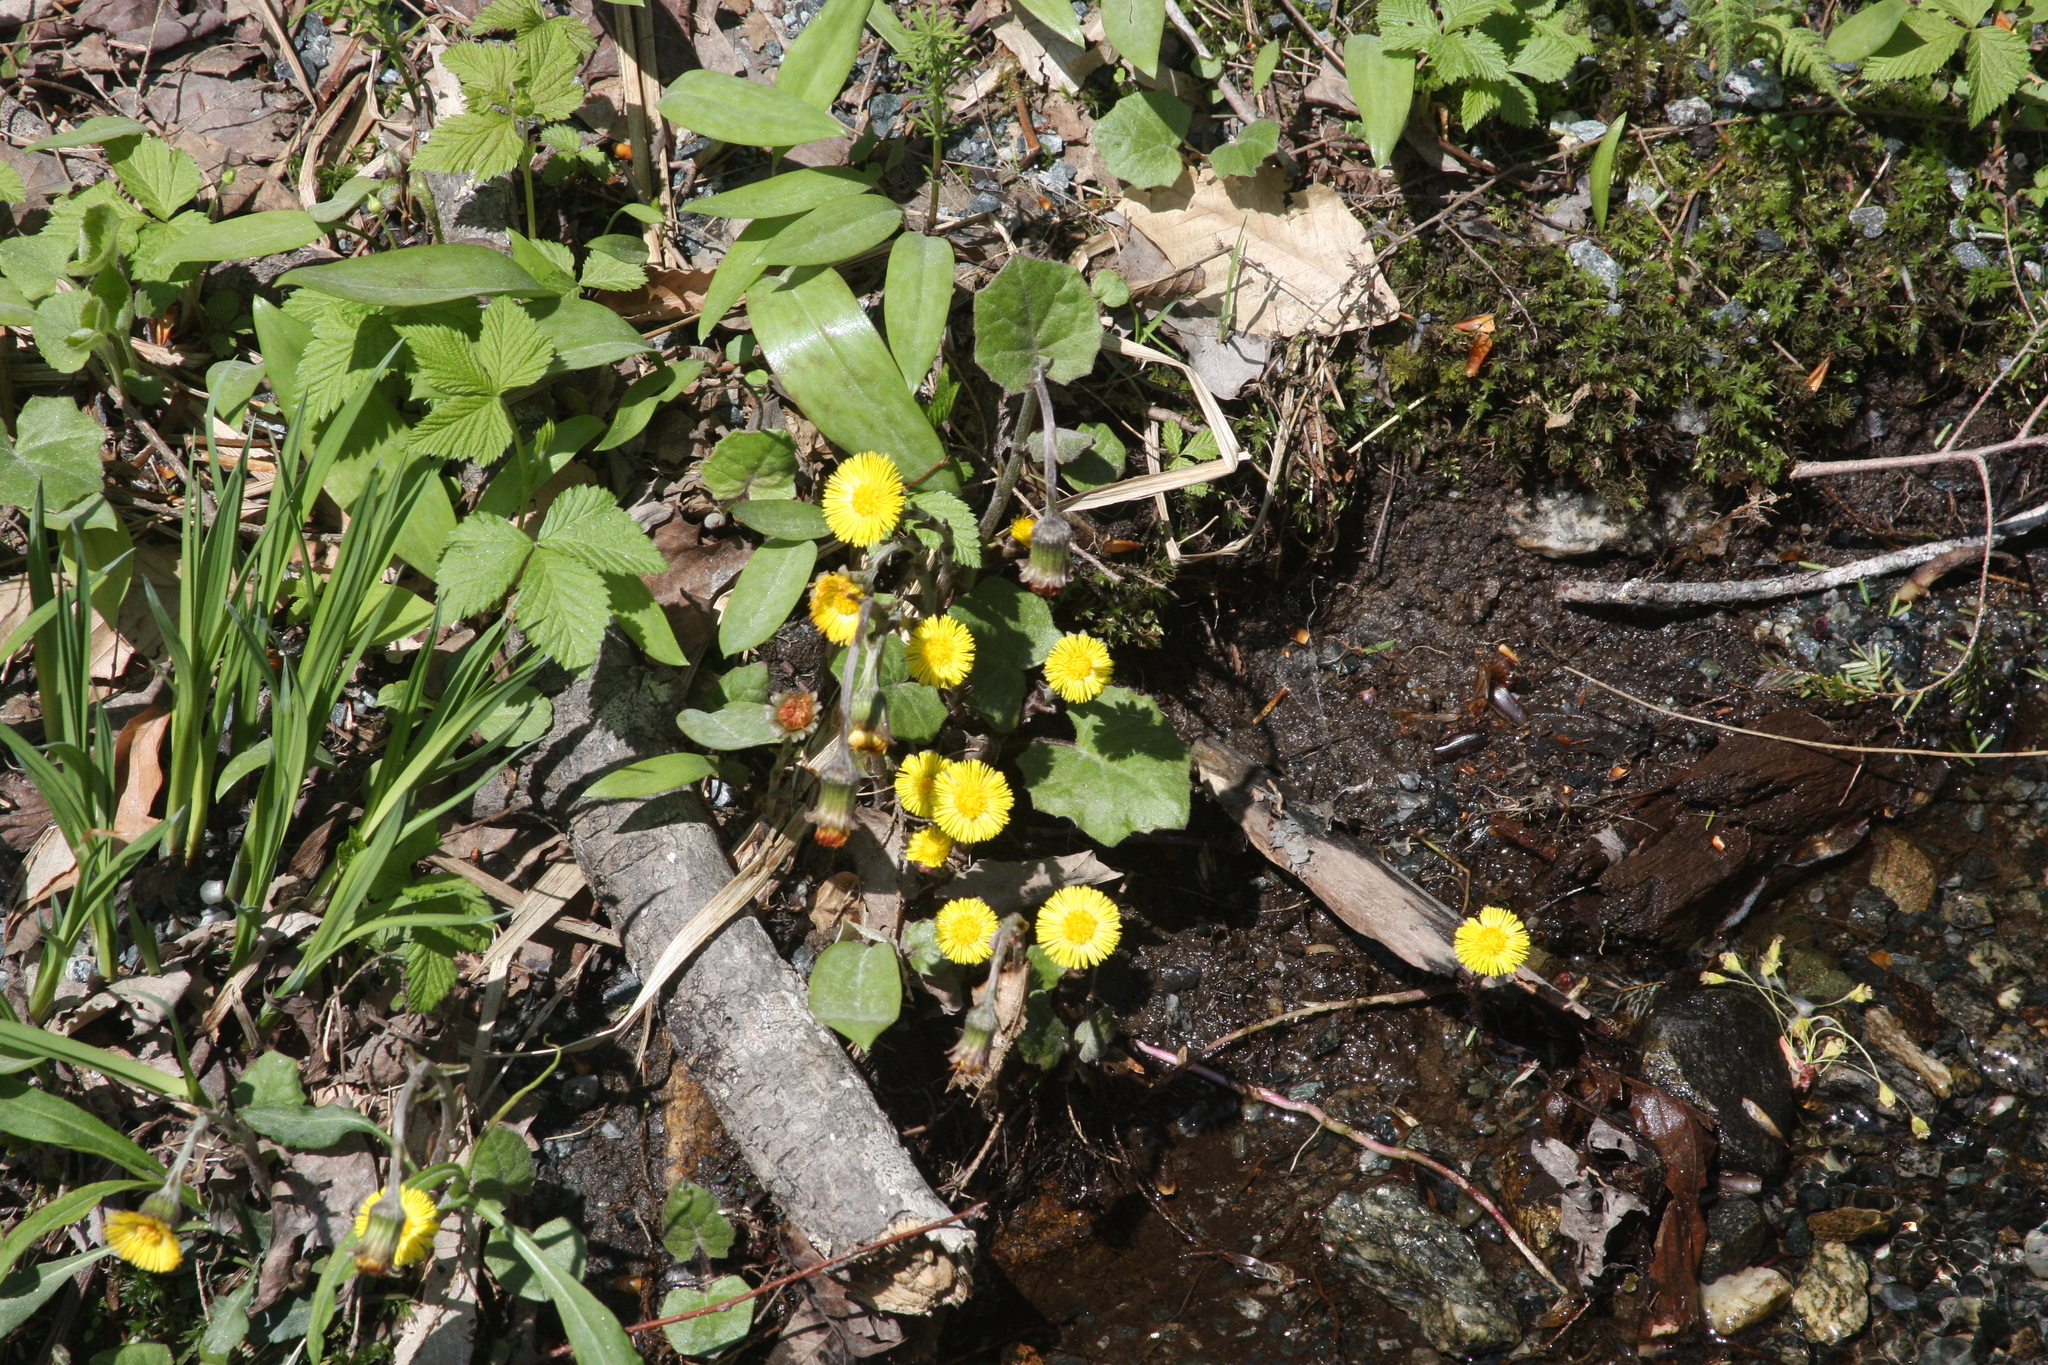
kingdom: Plantae
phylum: Tracheophyta
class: Magnoliopsida
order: Asterales
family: Asteraceae
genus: Tussilago
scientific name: Tussilago farfara
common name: Coltsfoot
